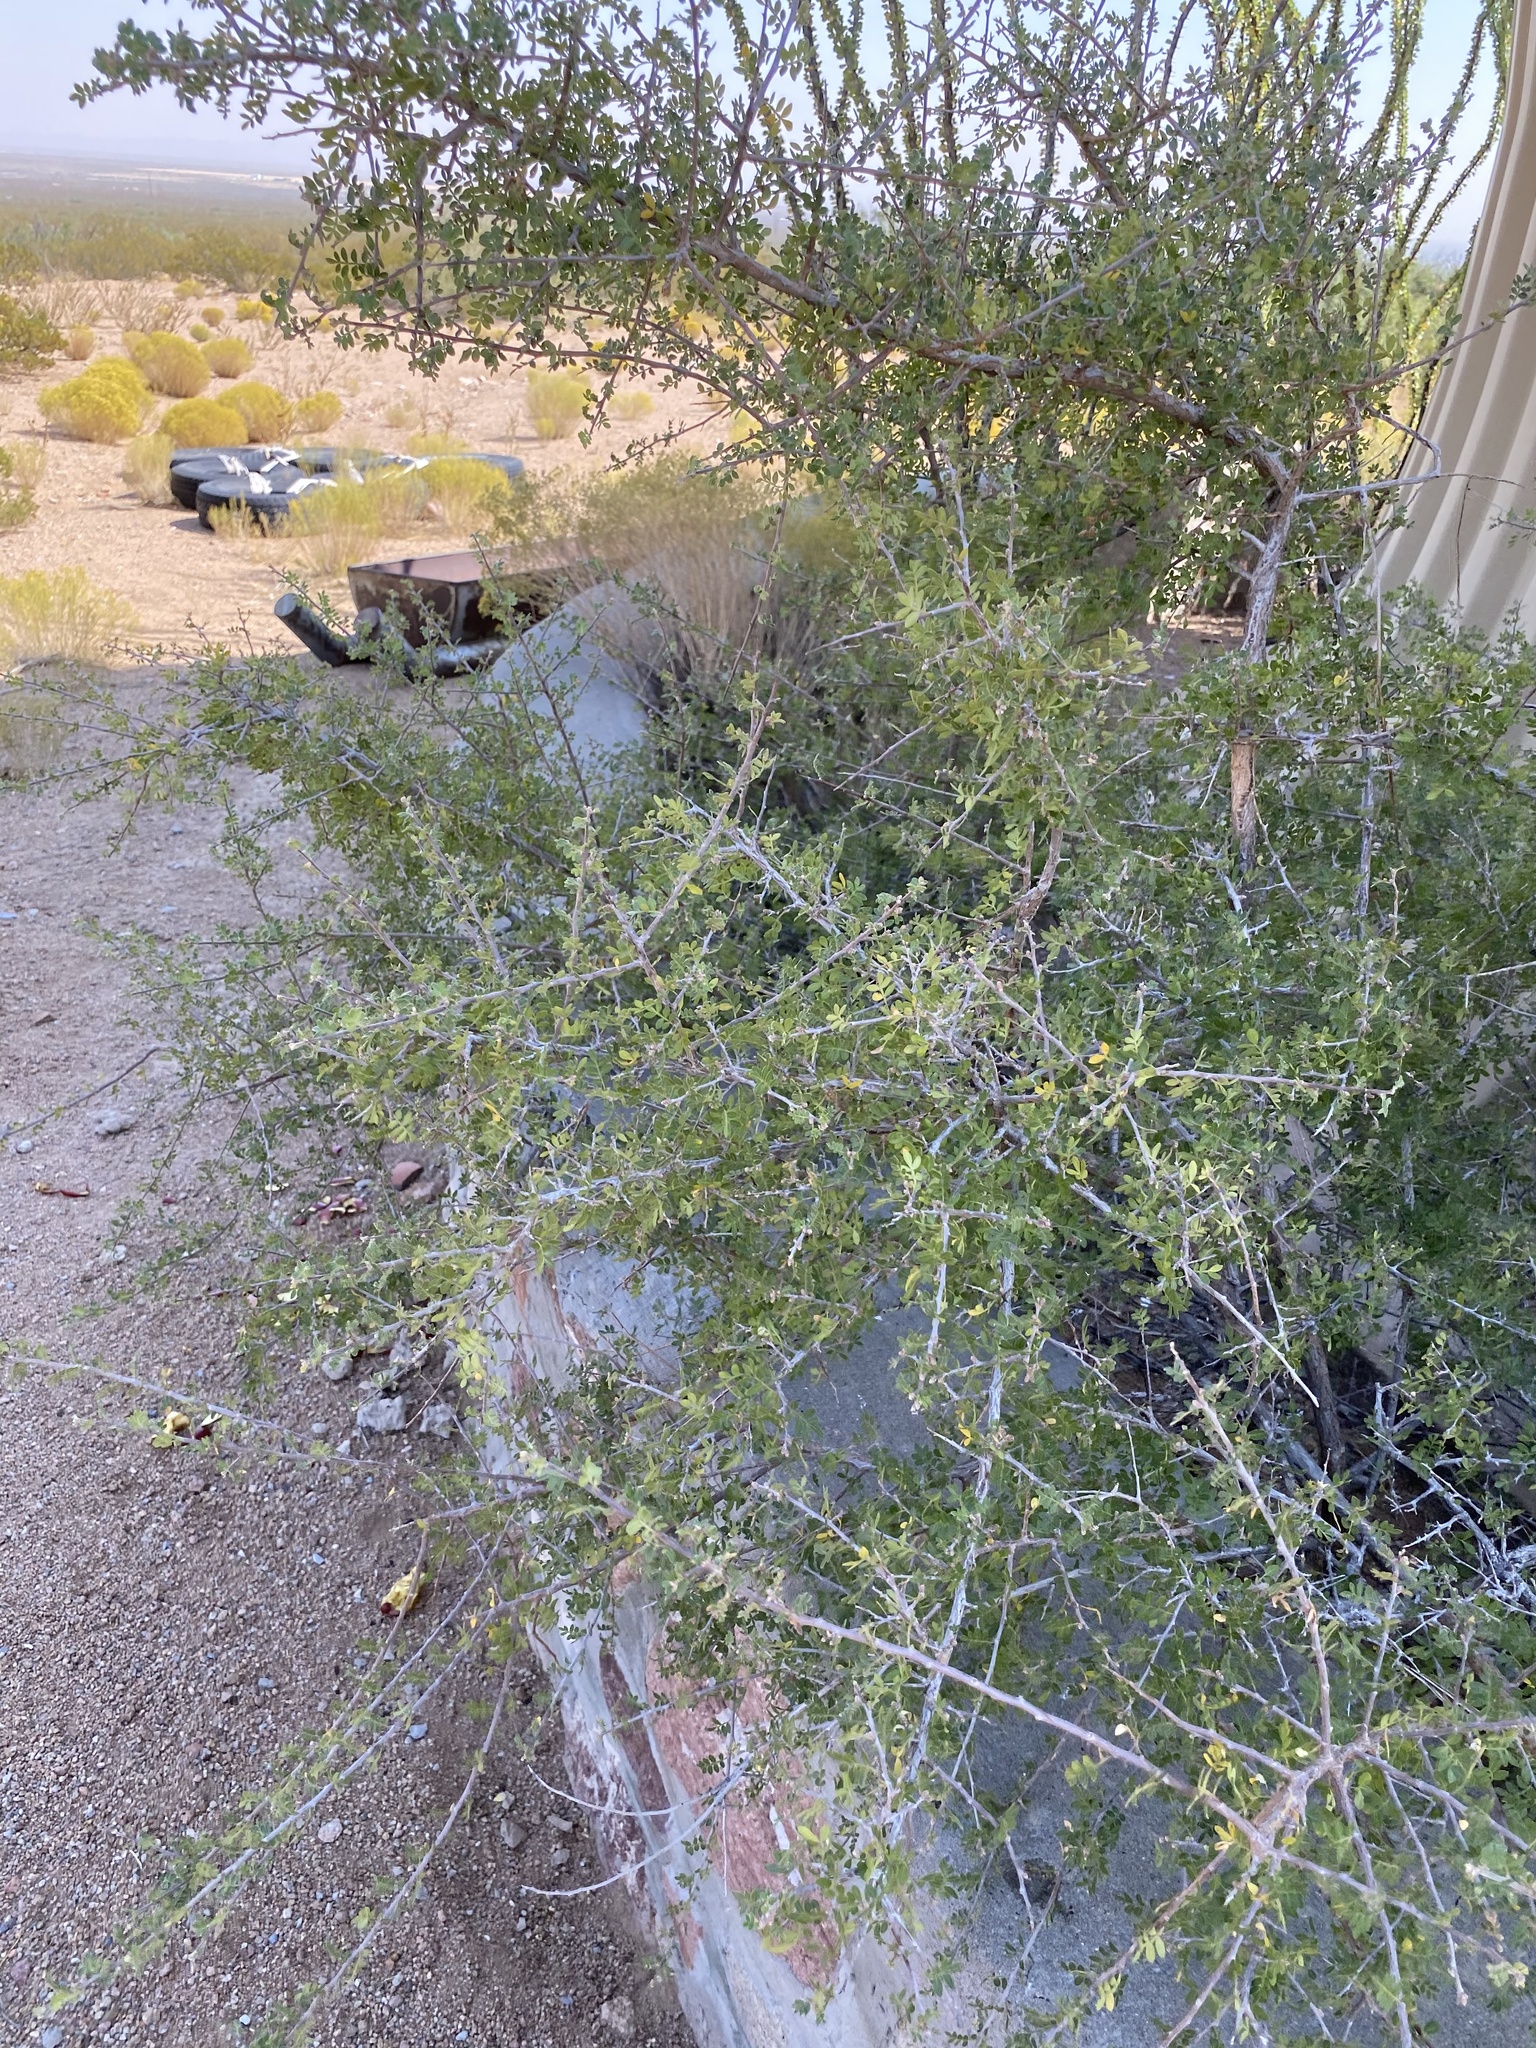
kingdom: Plantae
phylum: Tracheophyta
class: Magnoliopsida
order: Sapindales
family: Anacardiaceae
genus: Rhus
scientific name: Rhus microphylla
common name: Desert sumac
